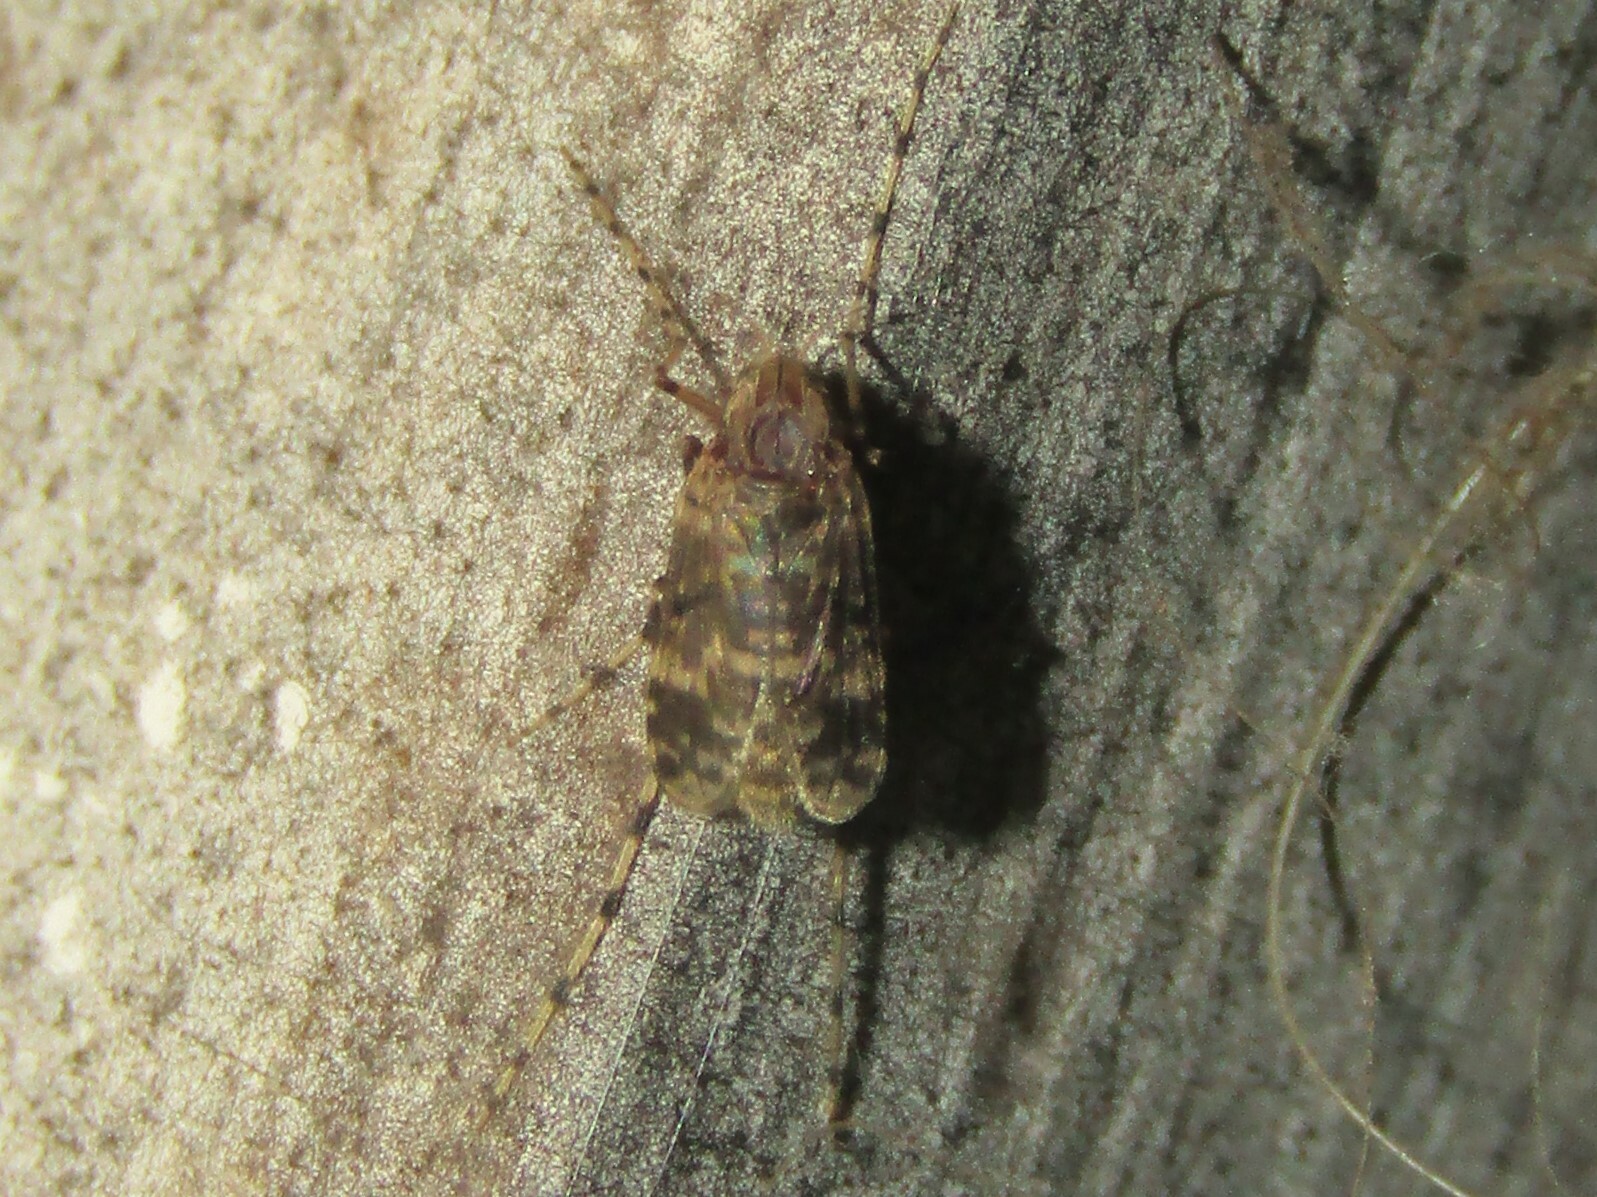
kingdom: Animalia
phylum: Arthropoda
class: Insecta
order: Diptera
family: Chironomidae
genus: Ablabesmyia
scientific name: Ablabesmyia annulata
